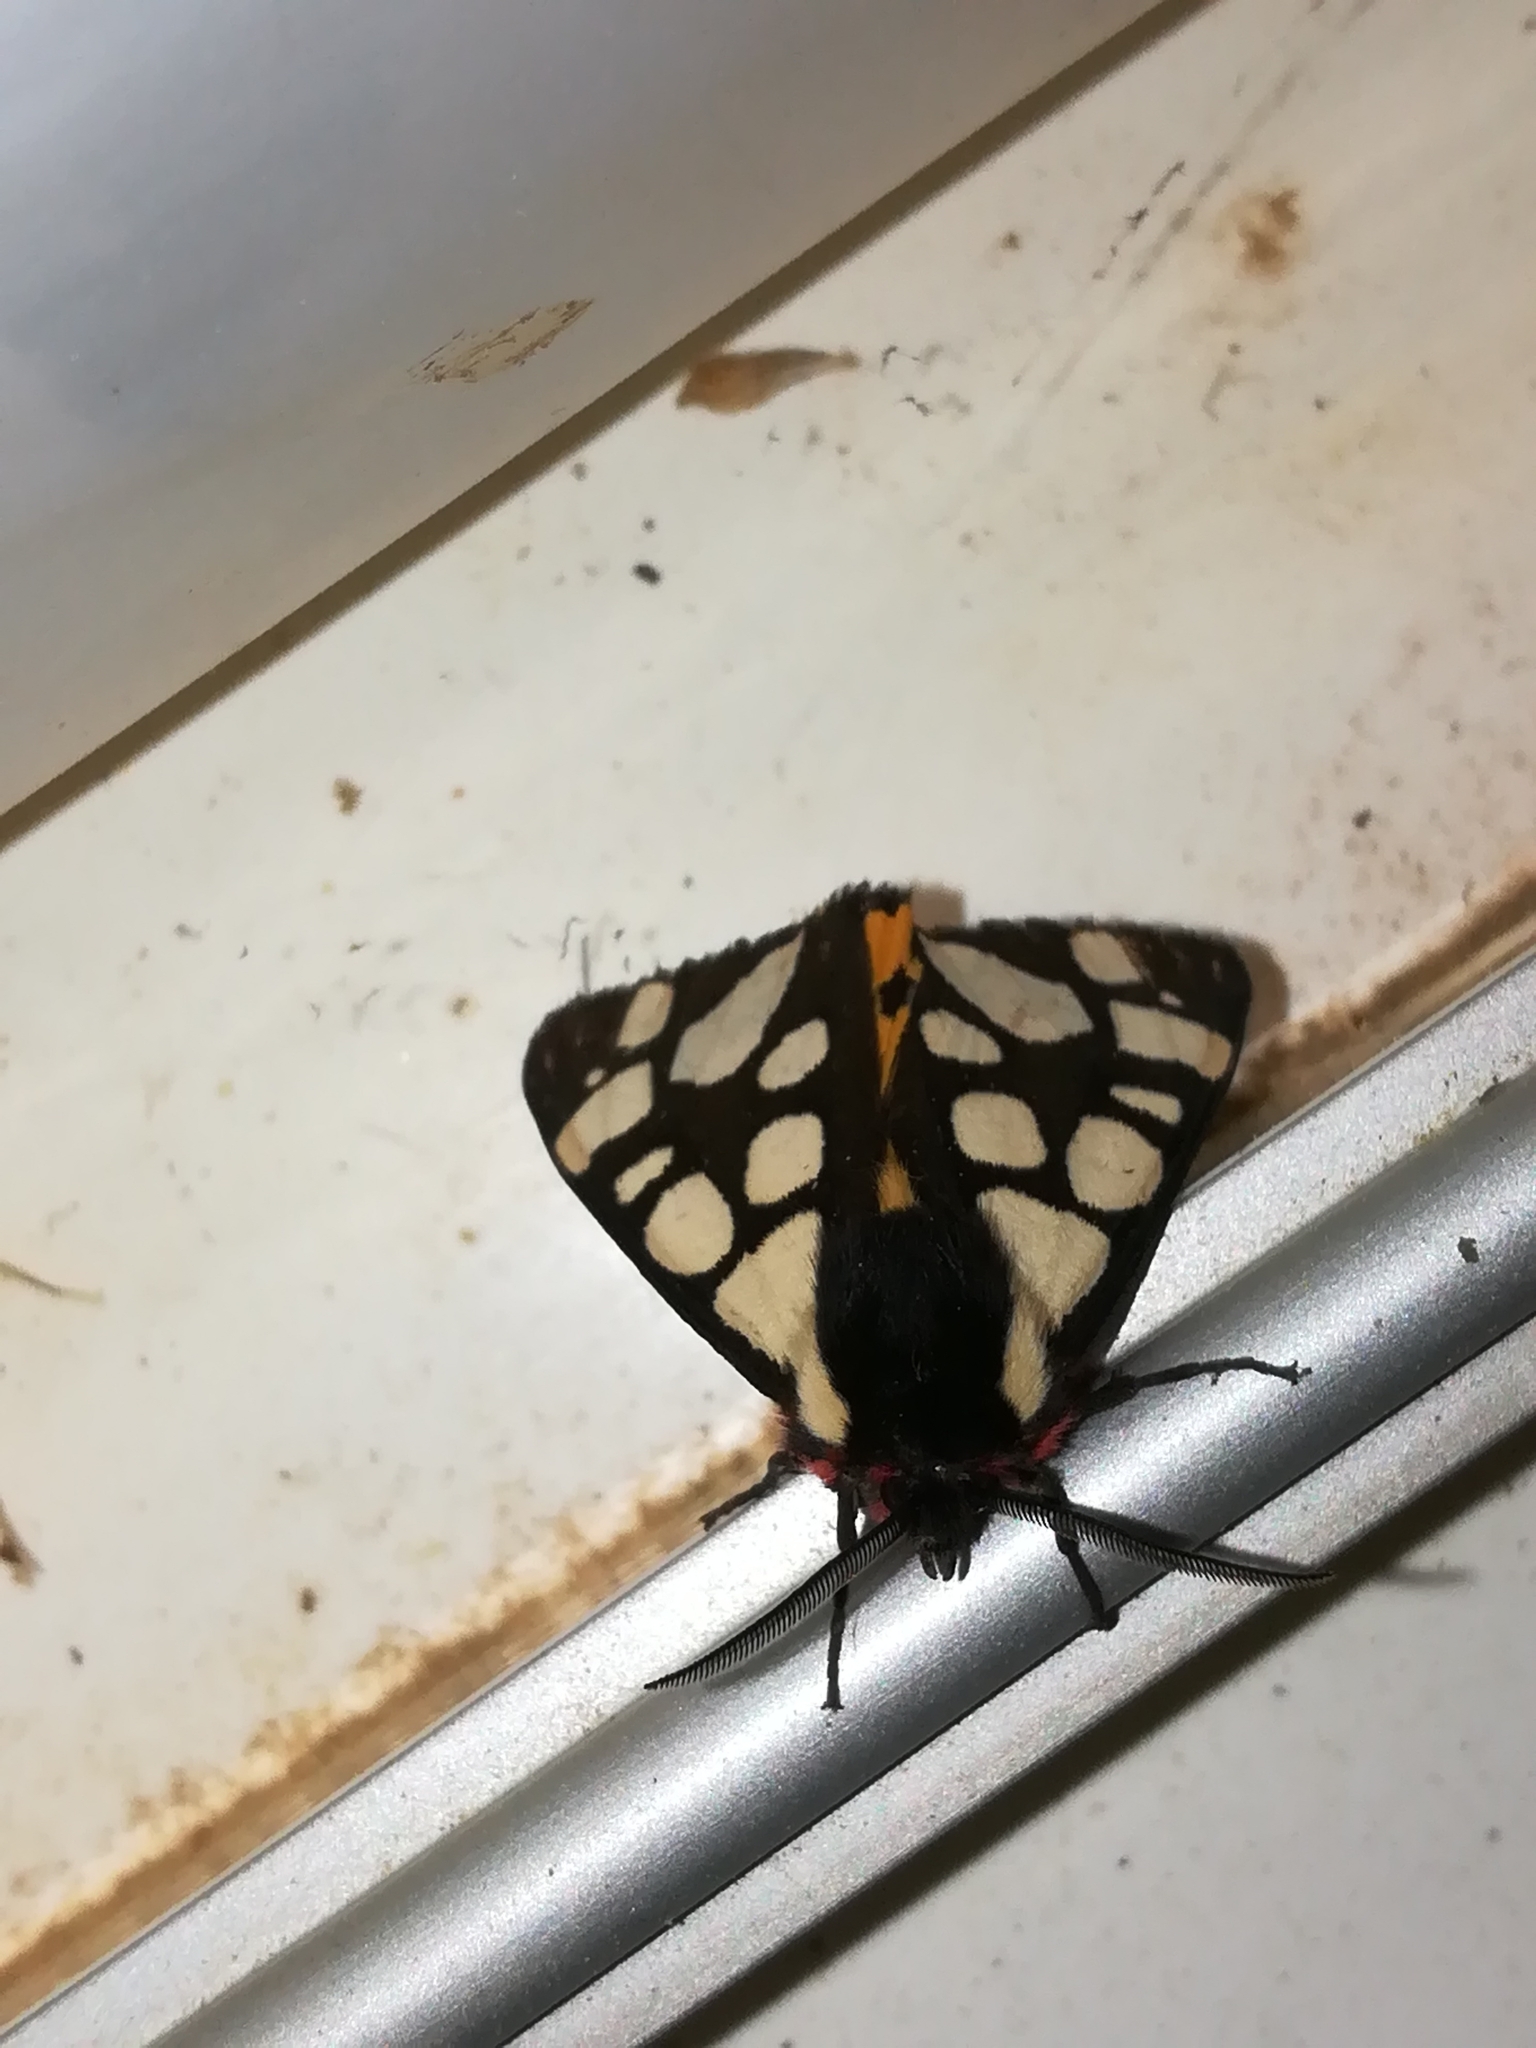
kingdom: Animalia
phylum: Arthropoda
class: Insecta
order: Lepidoptera
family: Erebidae
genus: Epicallia
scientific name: Epicallia villica
